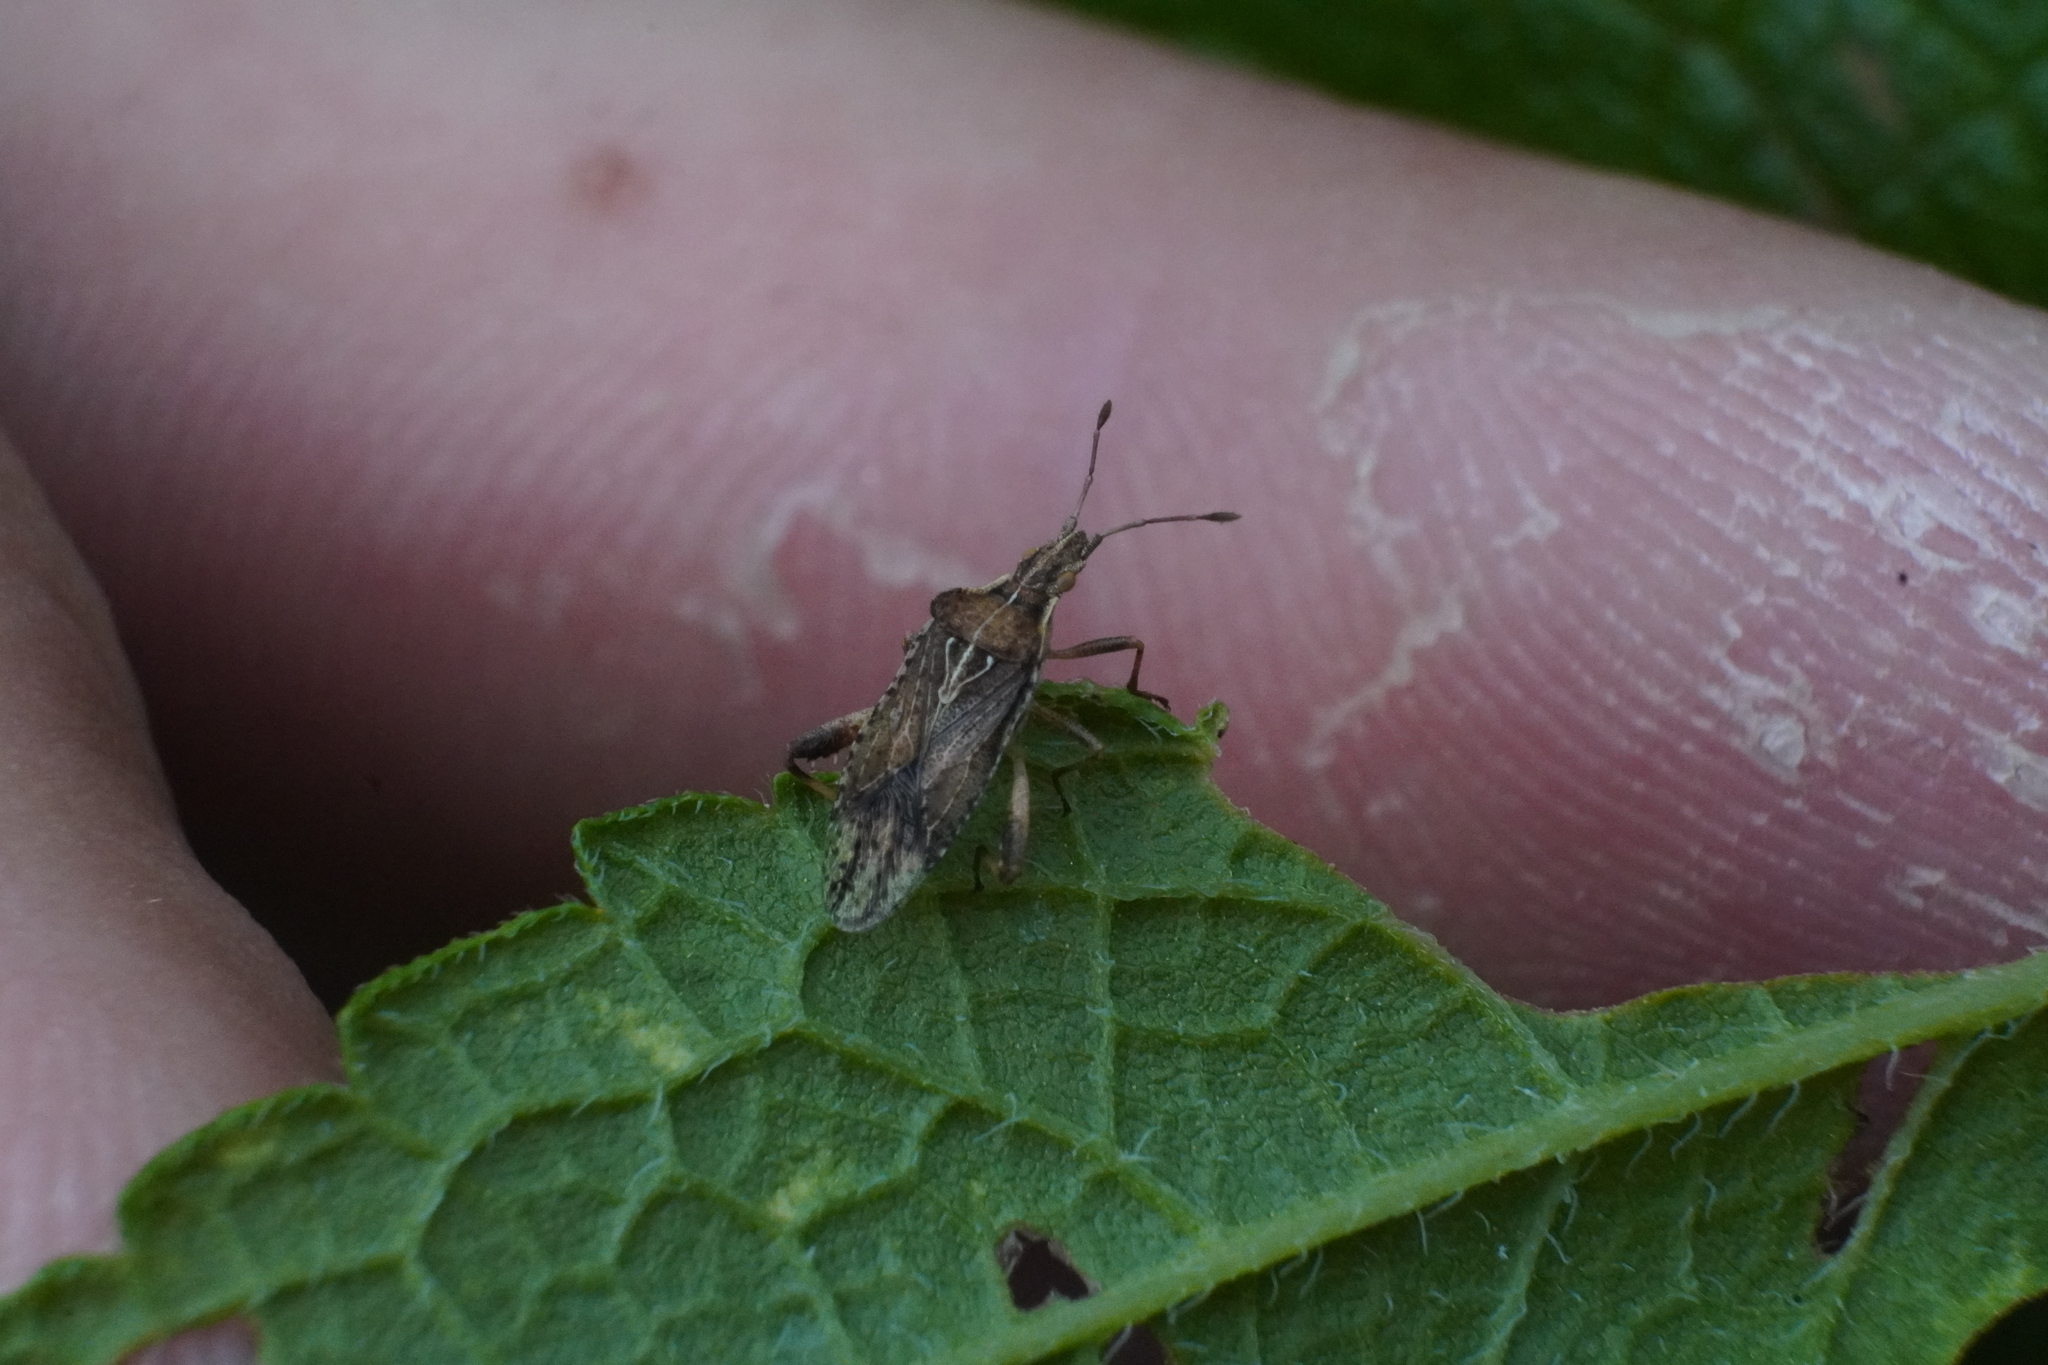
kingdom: Animalia
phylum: Arthropoda
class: Insecta
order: Hemiptera
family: Rhopalidae
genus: Harmostes
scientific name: Harmostes fraterculus
